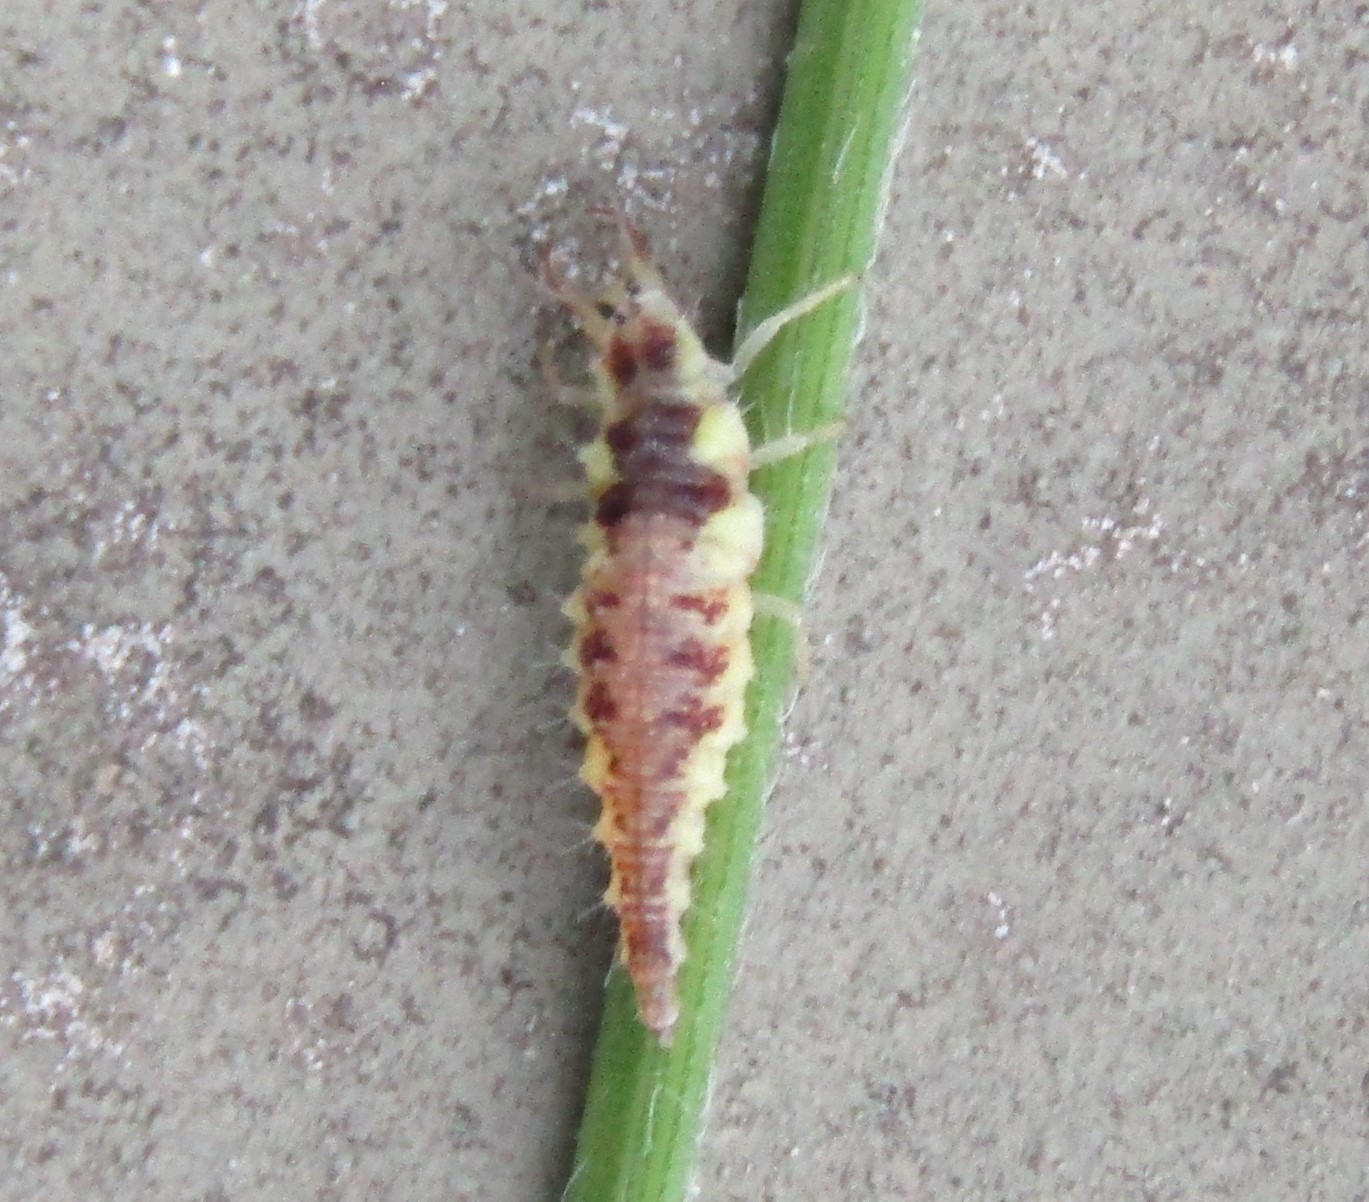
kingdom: Animalia
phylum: Arthropoda
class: Insecta
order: Neuroptera
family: Chrysopidae
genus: Chrysoperla
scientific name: Chrysoperla
